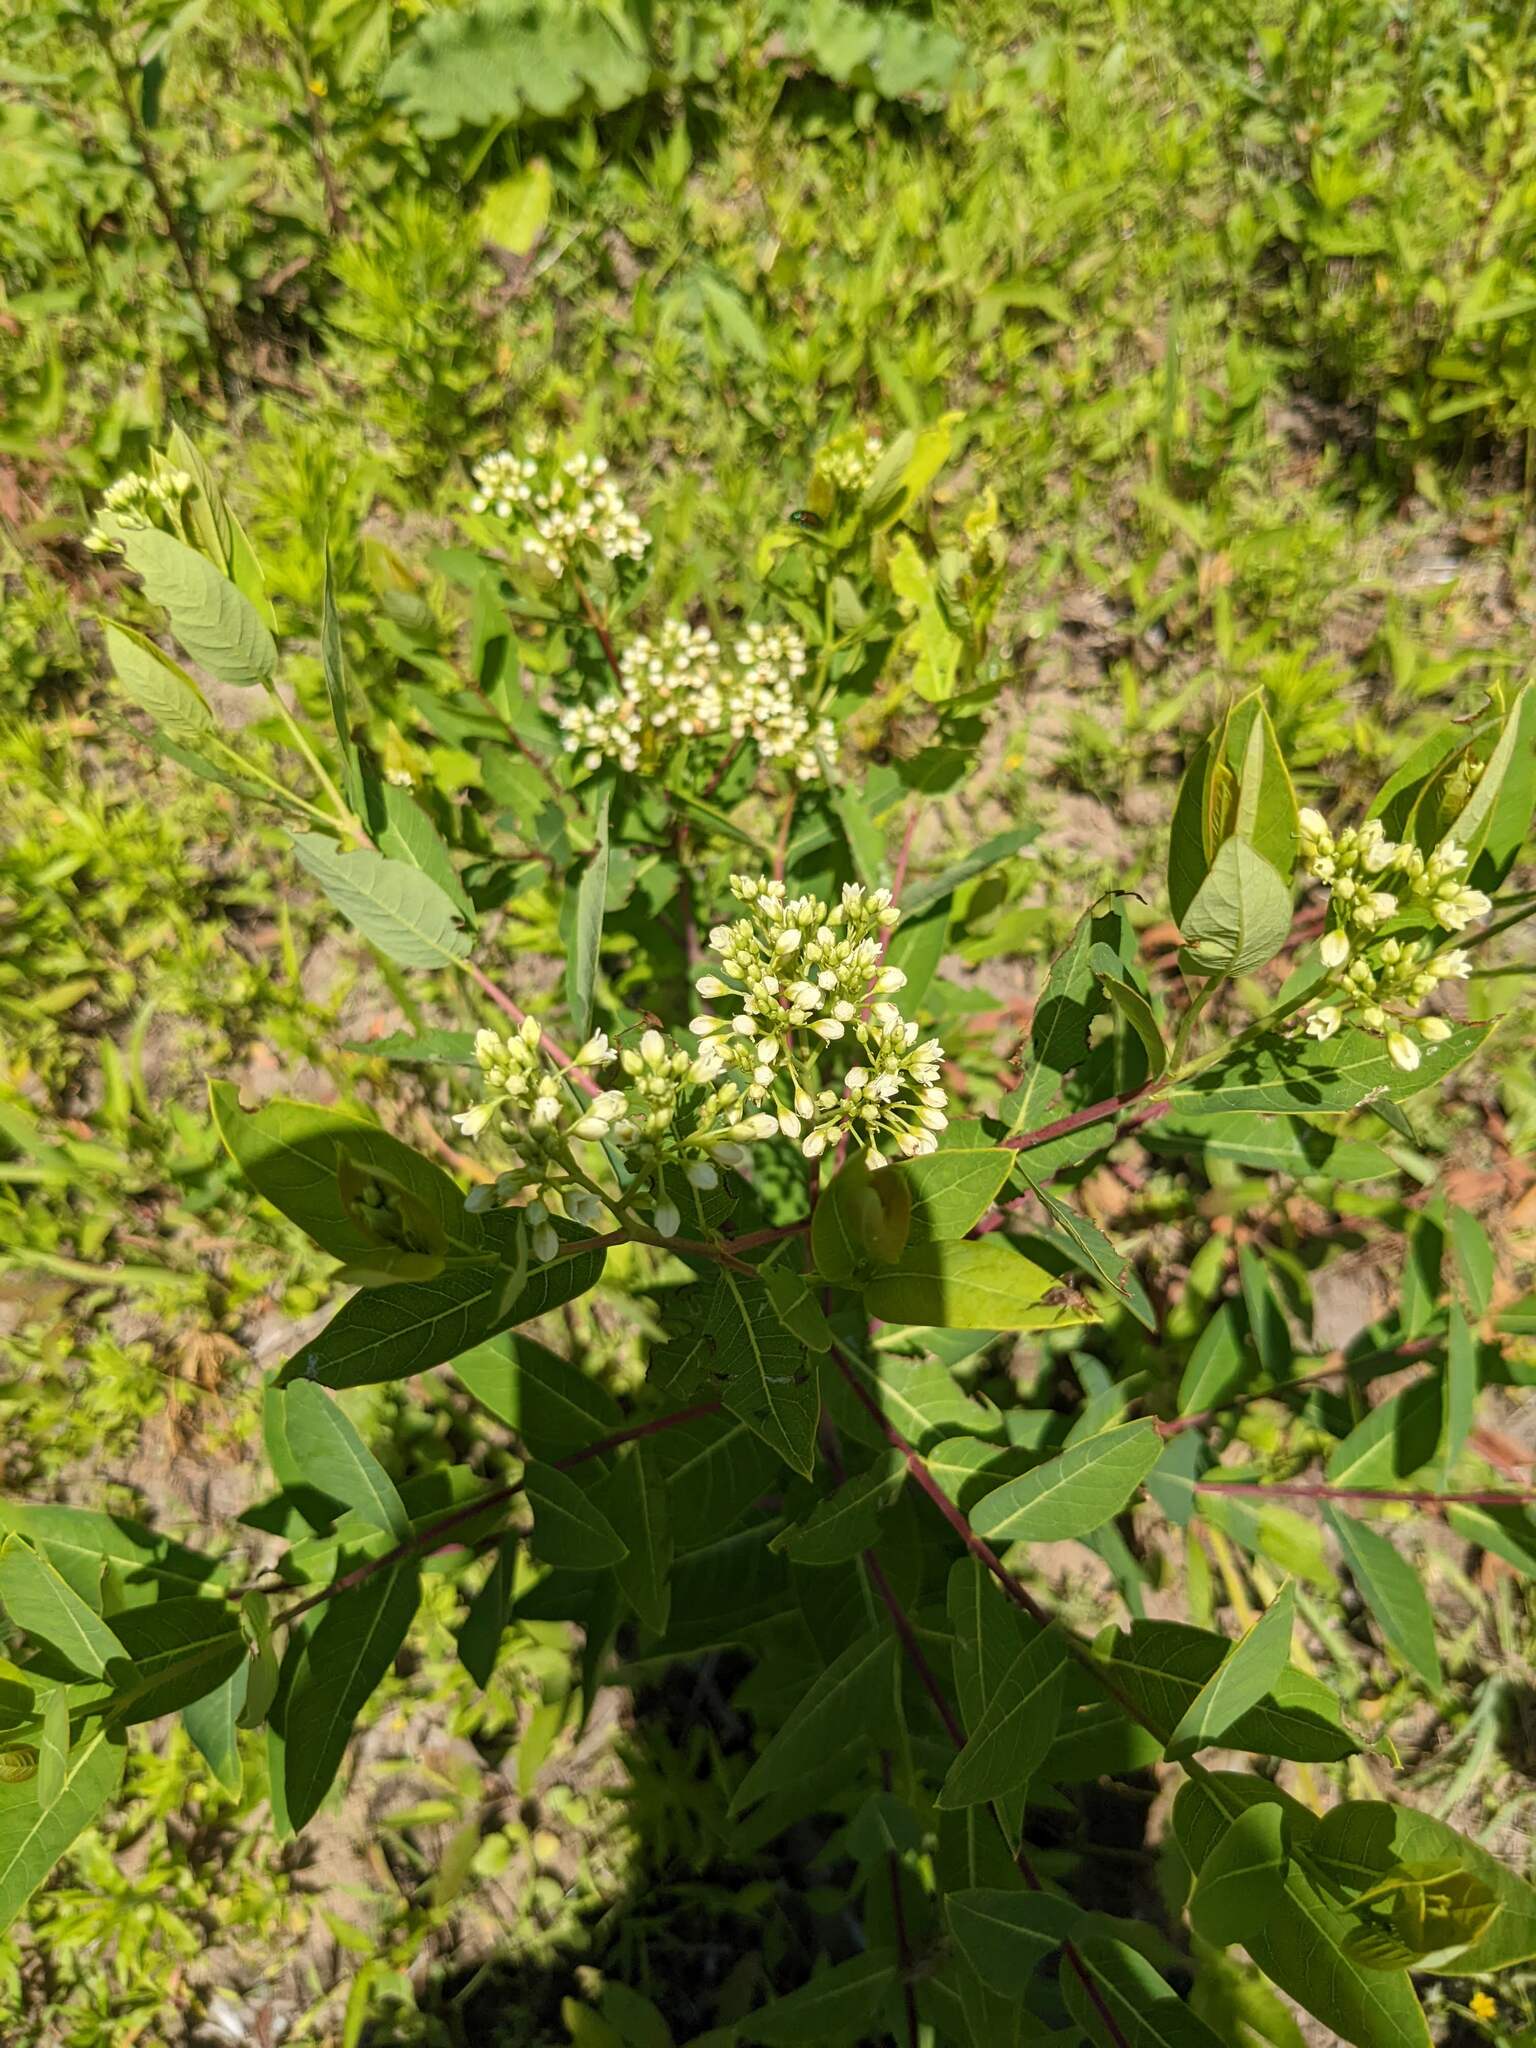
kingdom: Plantae
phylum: Tracheophyta
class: Magnoliopsida
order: Gentianales
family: Apocynaceae
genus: Apocynum
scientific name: Apocynum cannabinum
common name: Hemp dogbane
